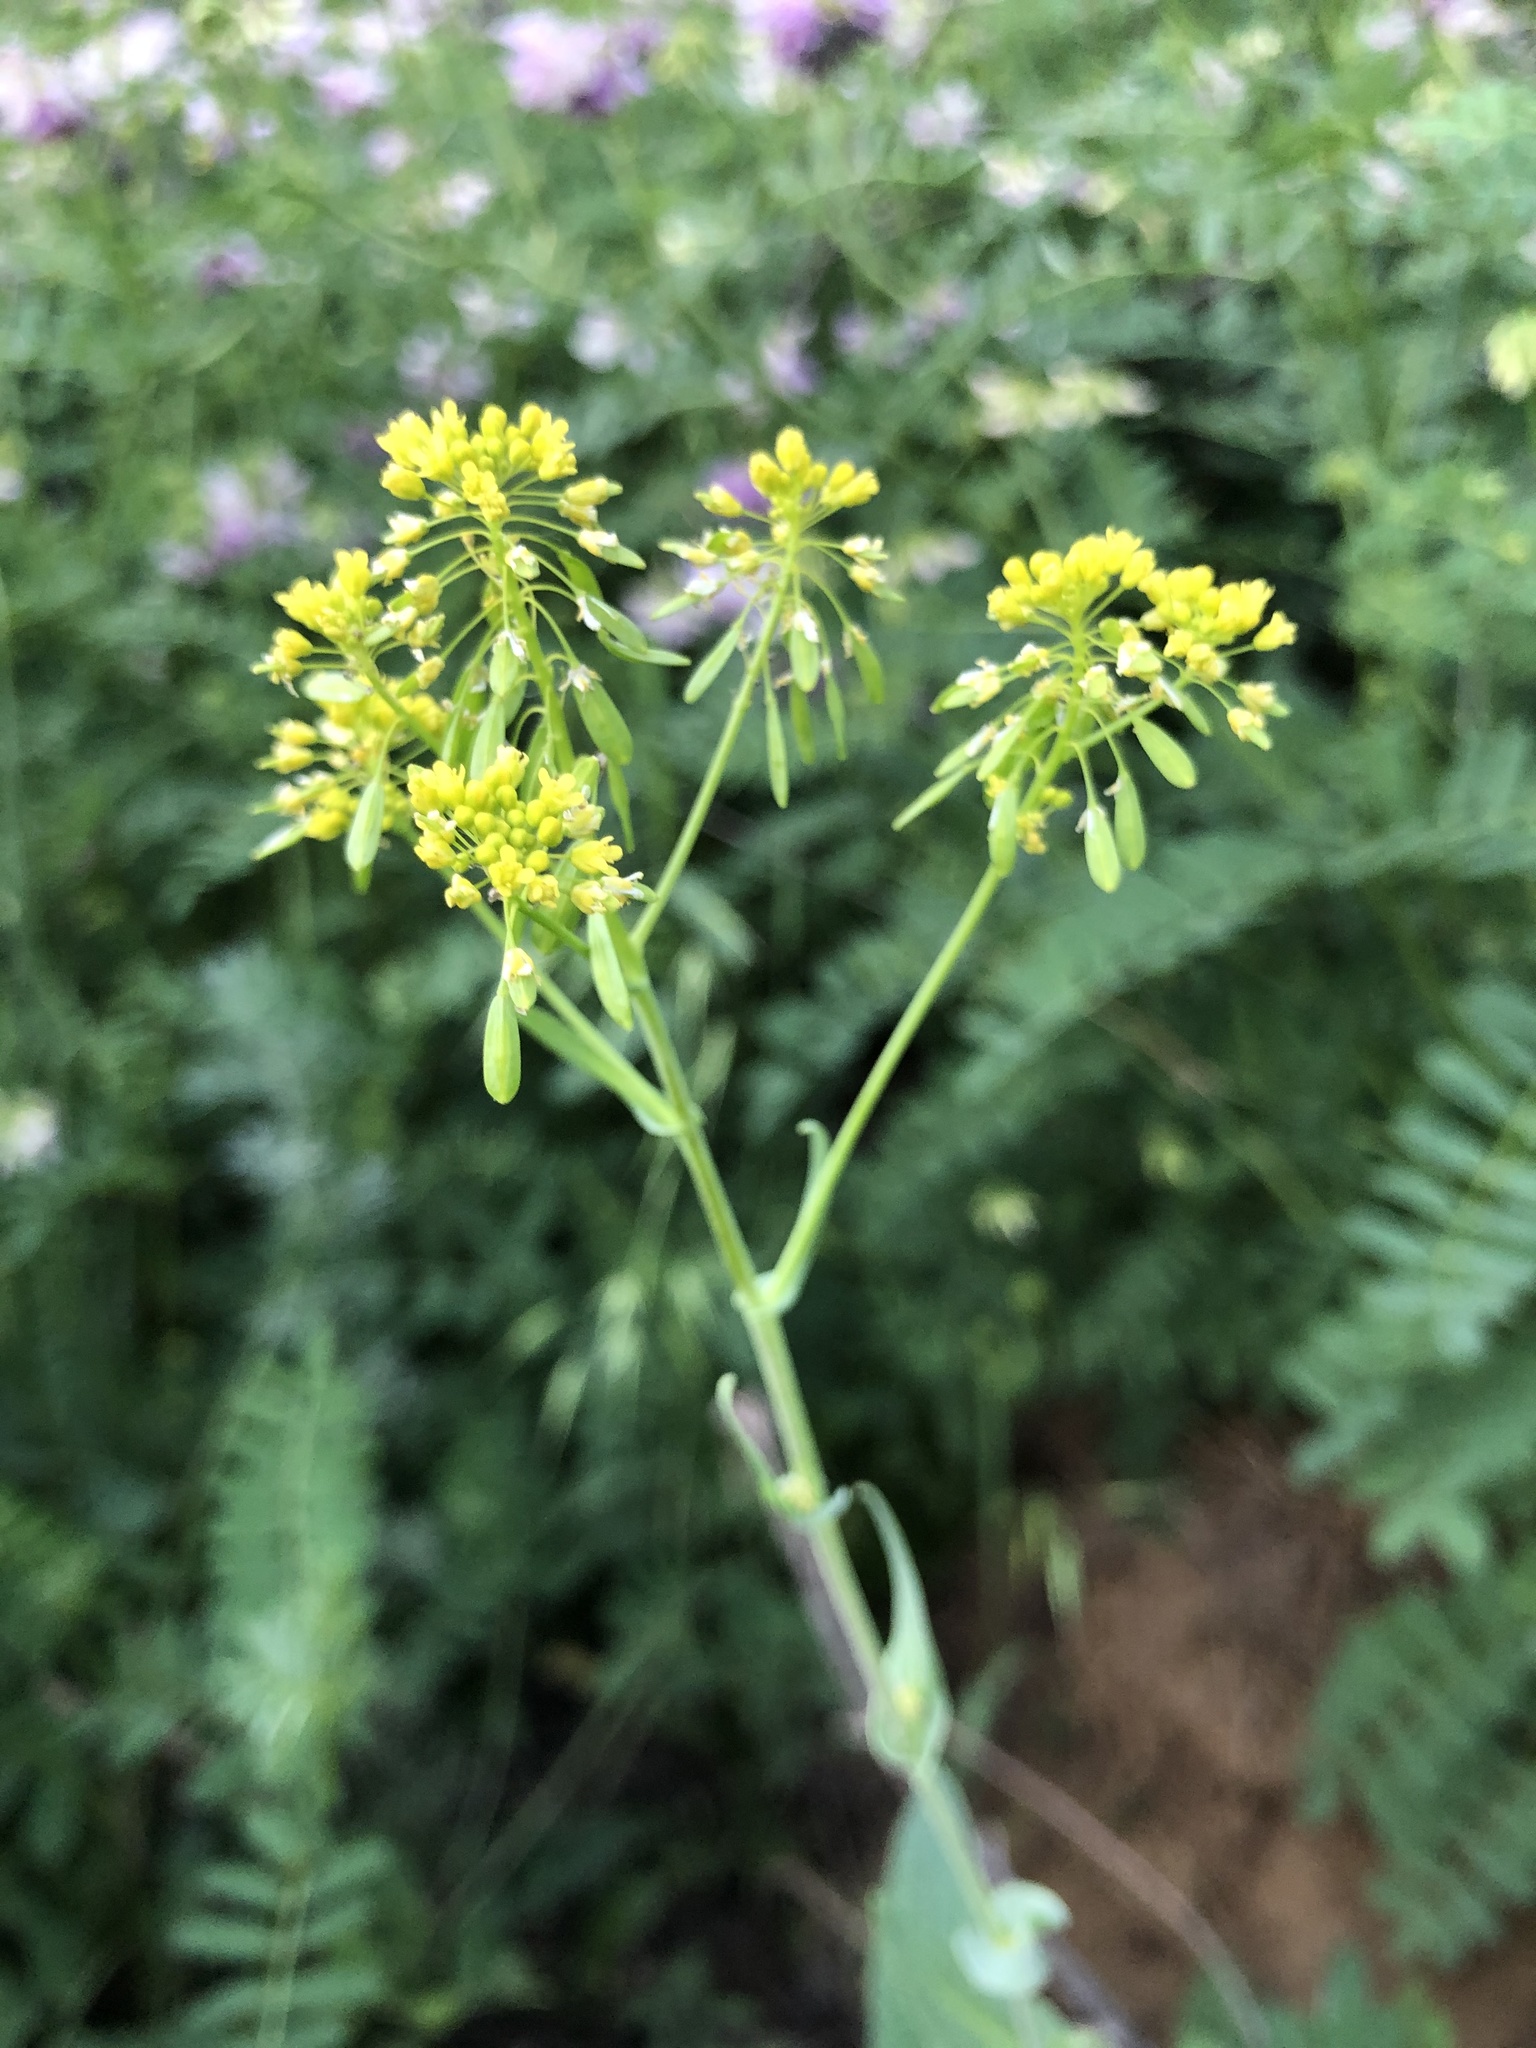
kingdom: Plantae
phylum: Tracheophyta
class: Magnoliopsida
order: Brassicales
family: Brassicaceae
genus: Isatis
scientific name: Isatis tinctoria
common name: Woad
